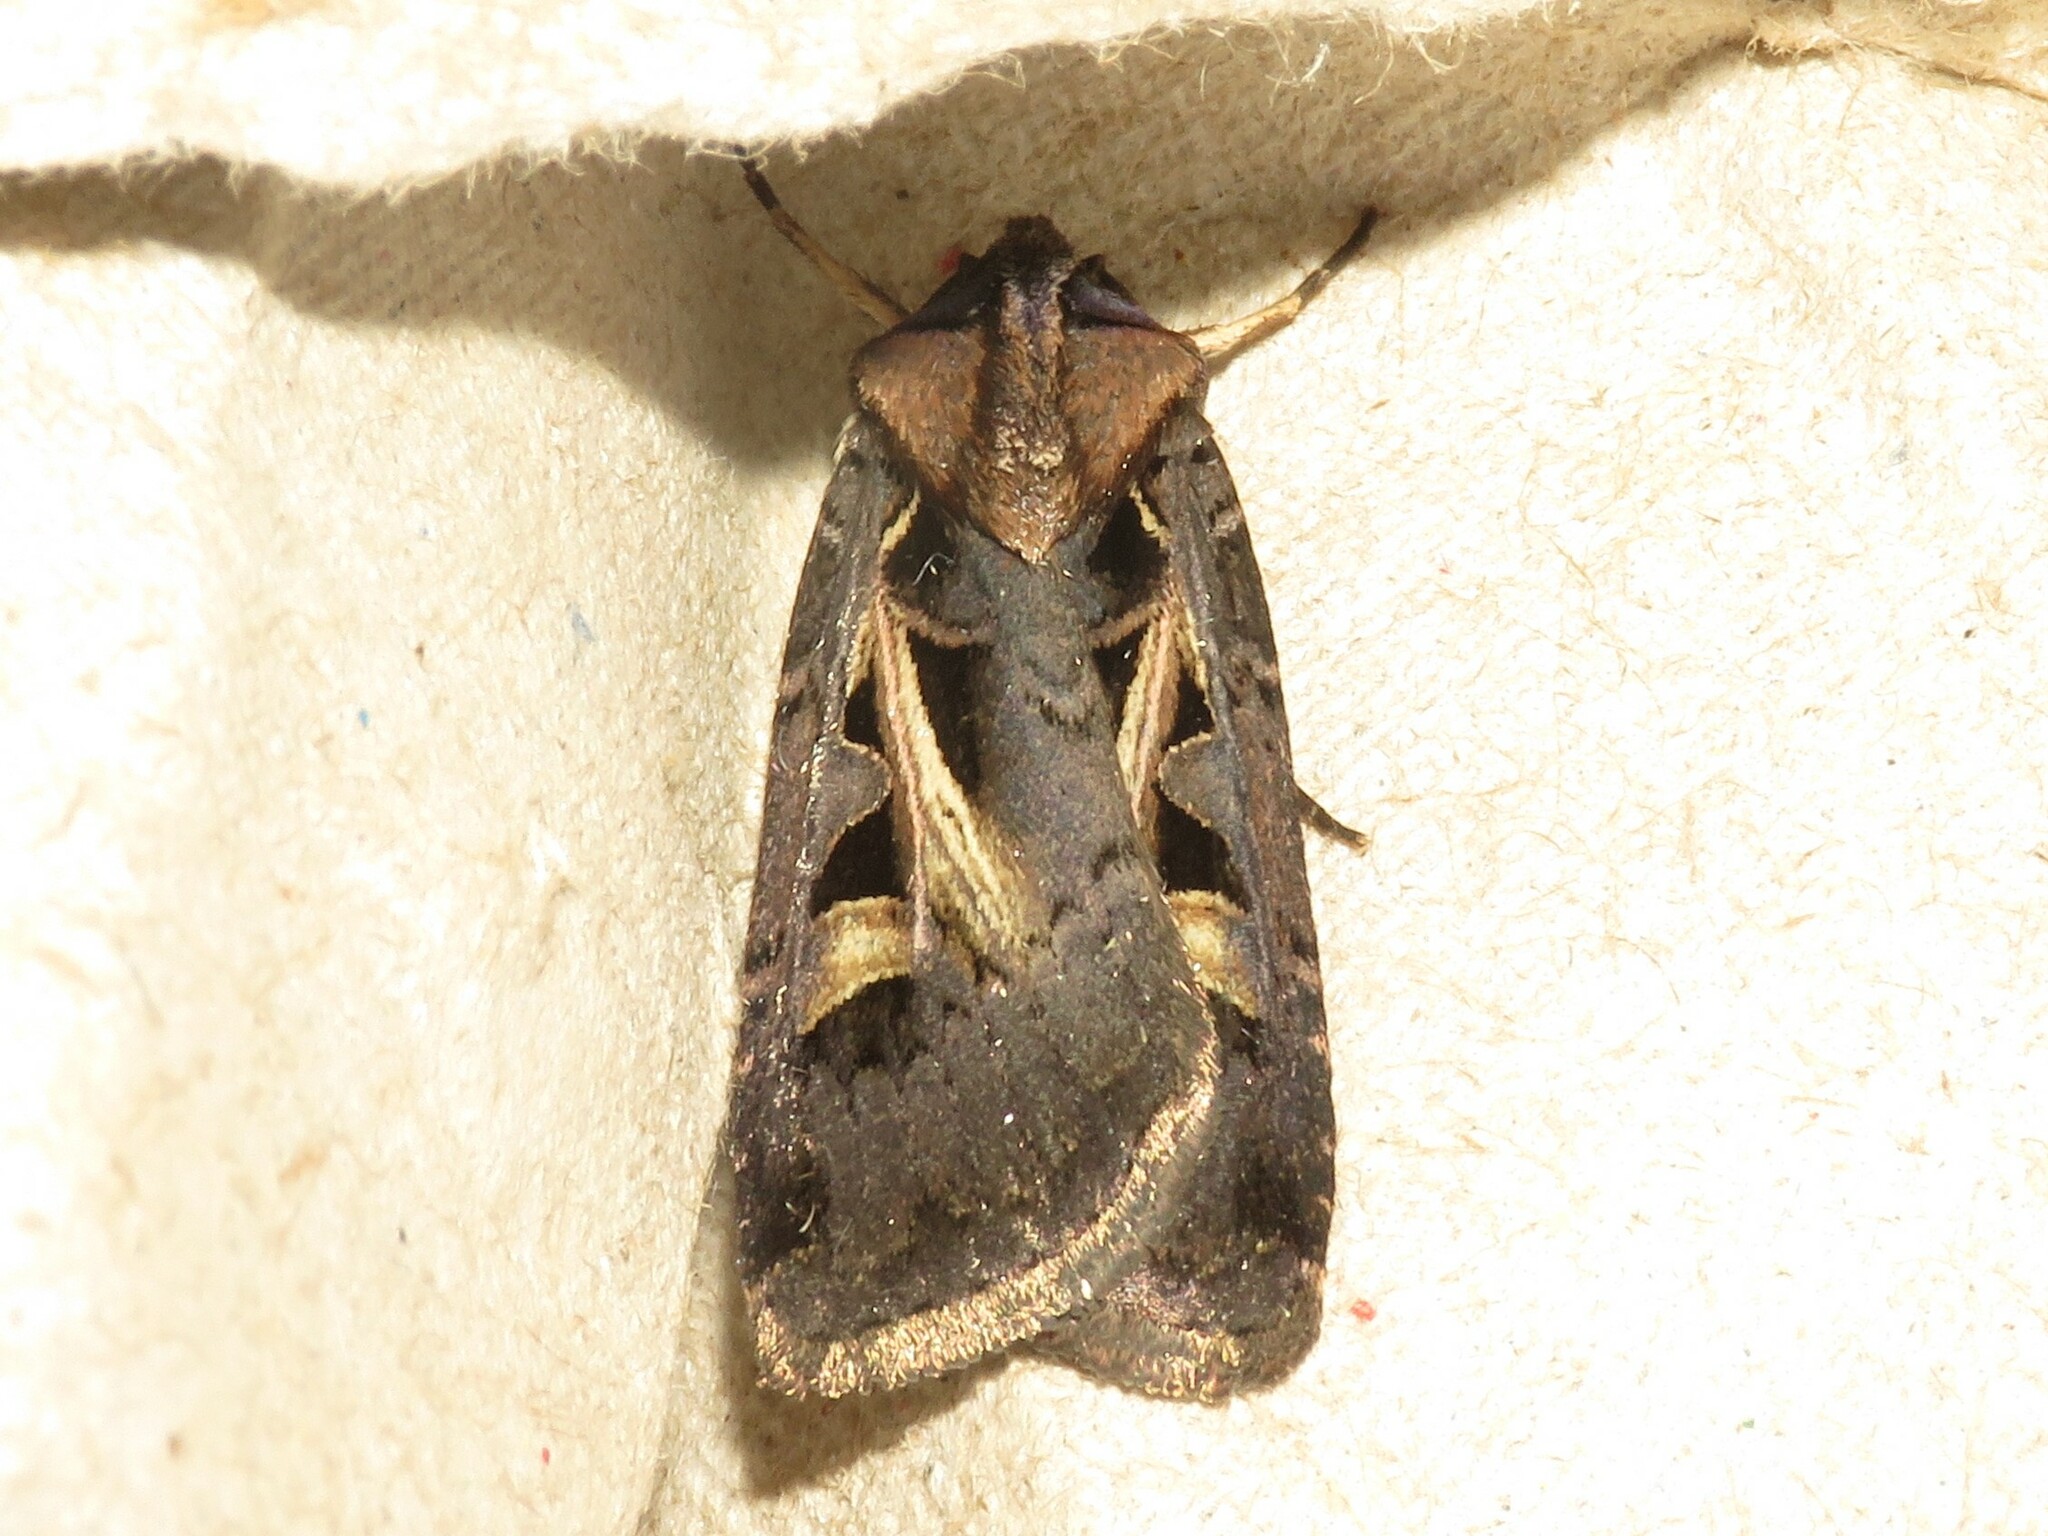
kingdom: Animalia
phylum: Arthropoda
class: Insecta
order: Lepidoptera
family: Noctuidae
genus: Feltia
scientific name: Feltia herilis
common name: Master's dart
